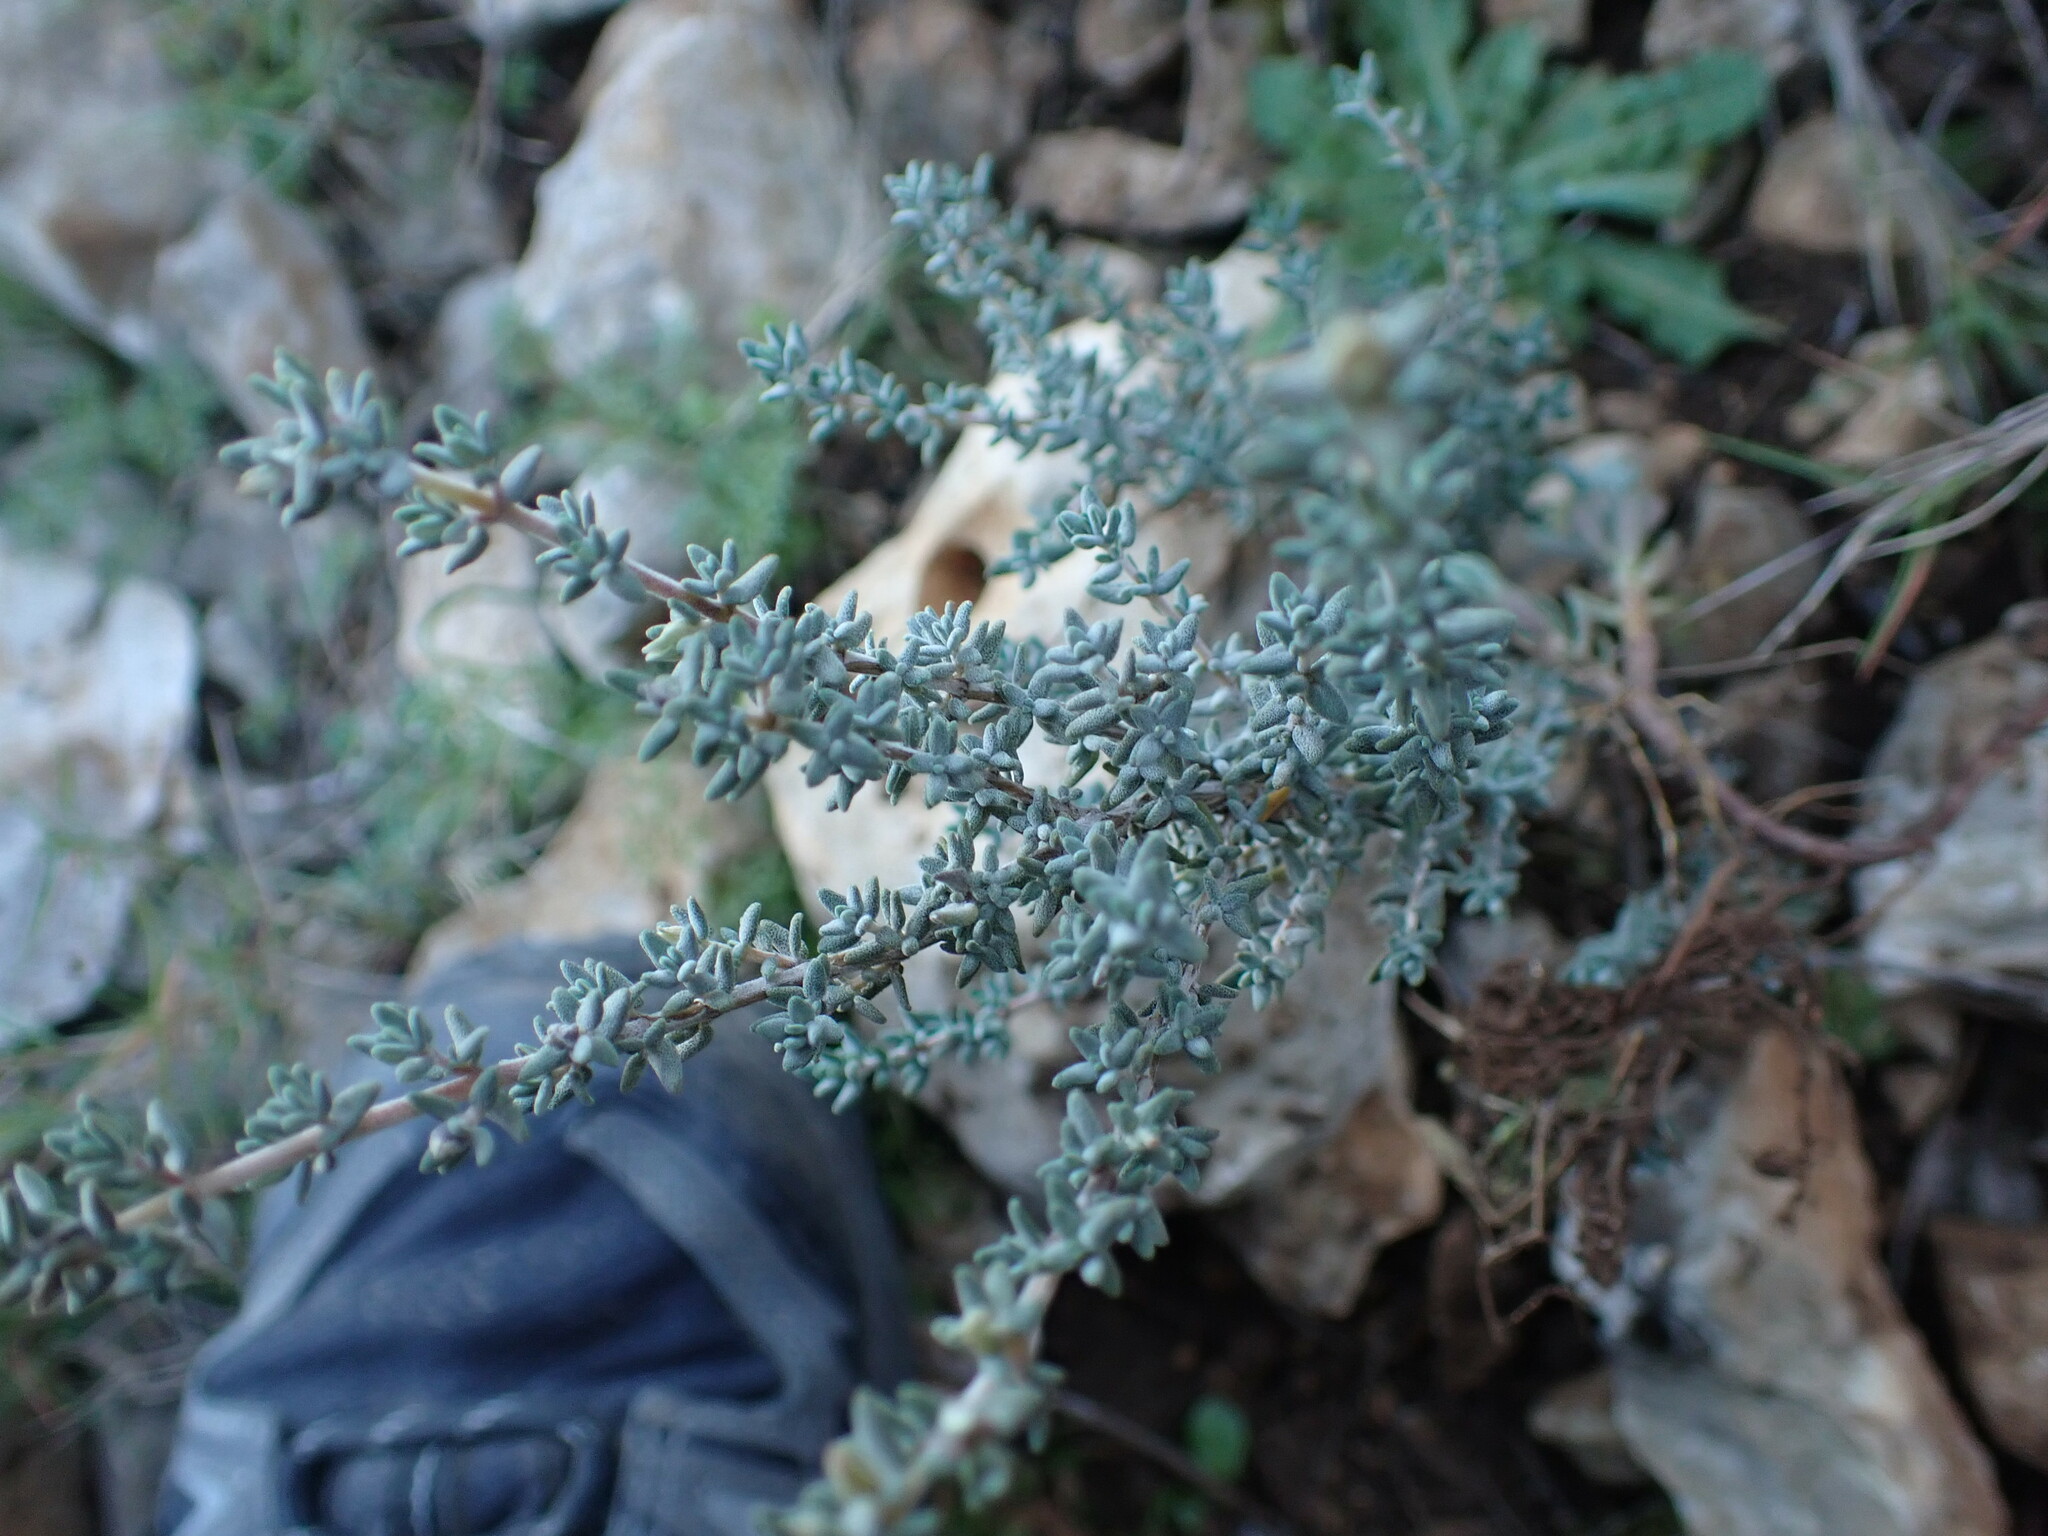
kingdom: Plantae
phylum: Tracheophyta
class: Magnoliopsida
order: Lamiales
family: Lamiaceae
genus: Thymus
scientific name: Thymus vulgaris
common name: Garden thyme
